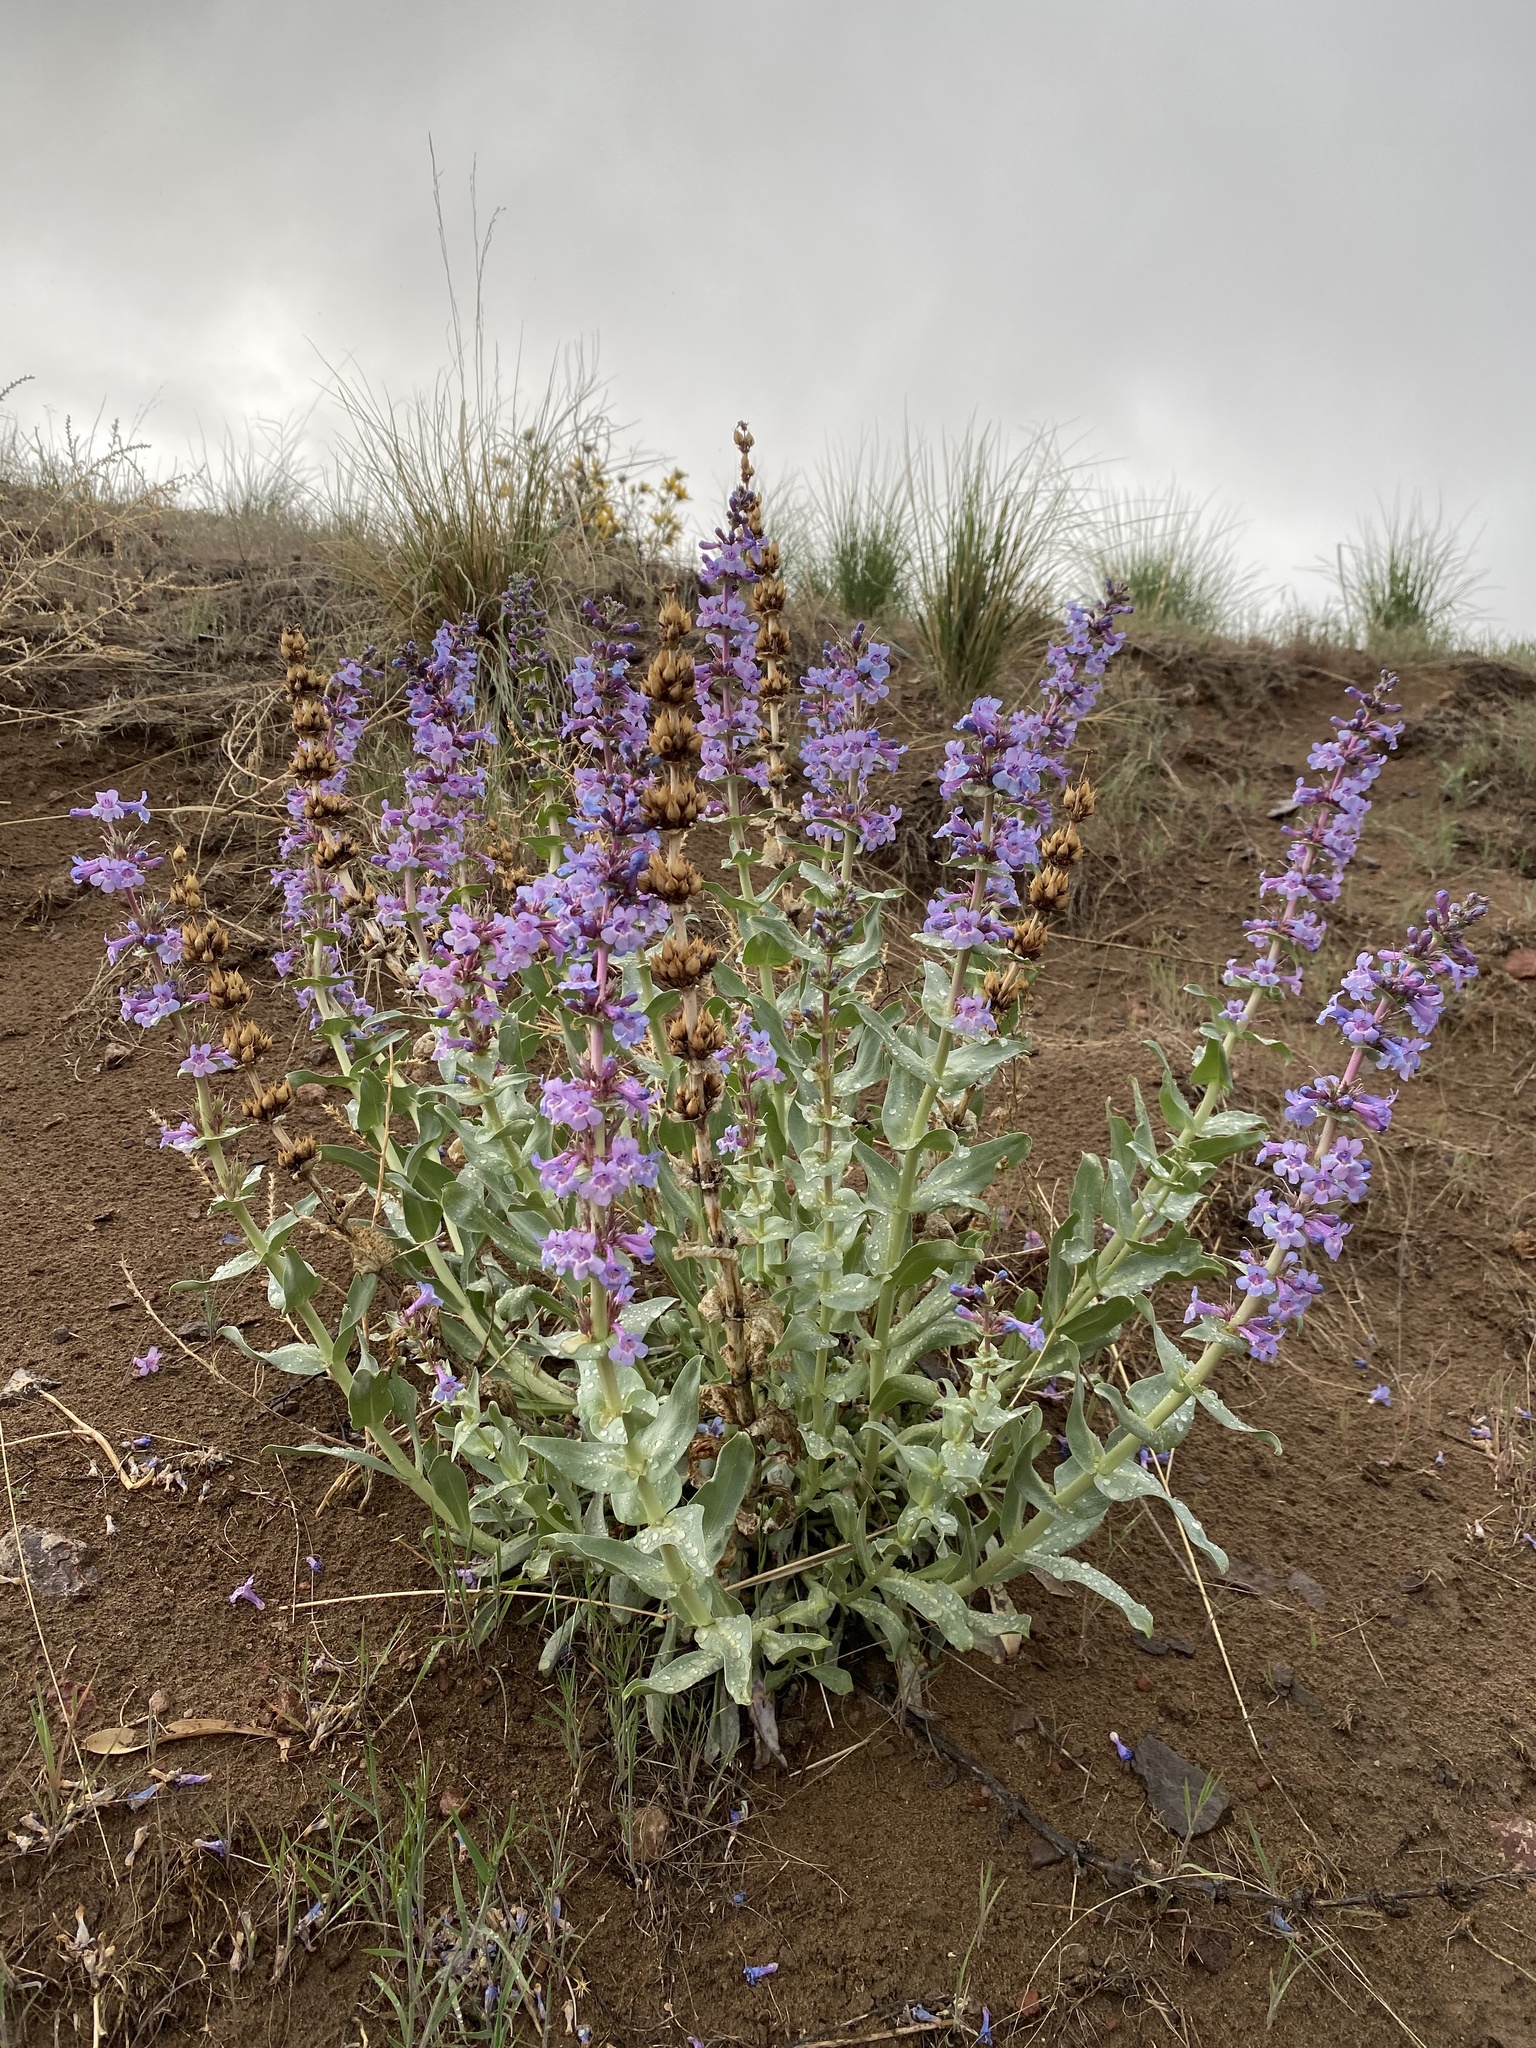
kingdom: Plantae
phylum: Tracheophyta
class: Magnoliopsida
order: Lamiales
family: Plantaginaceae
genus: Penstemon
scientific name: Penstemon acuminatus
